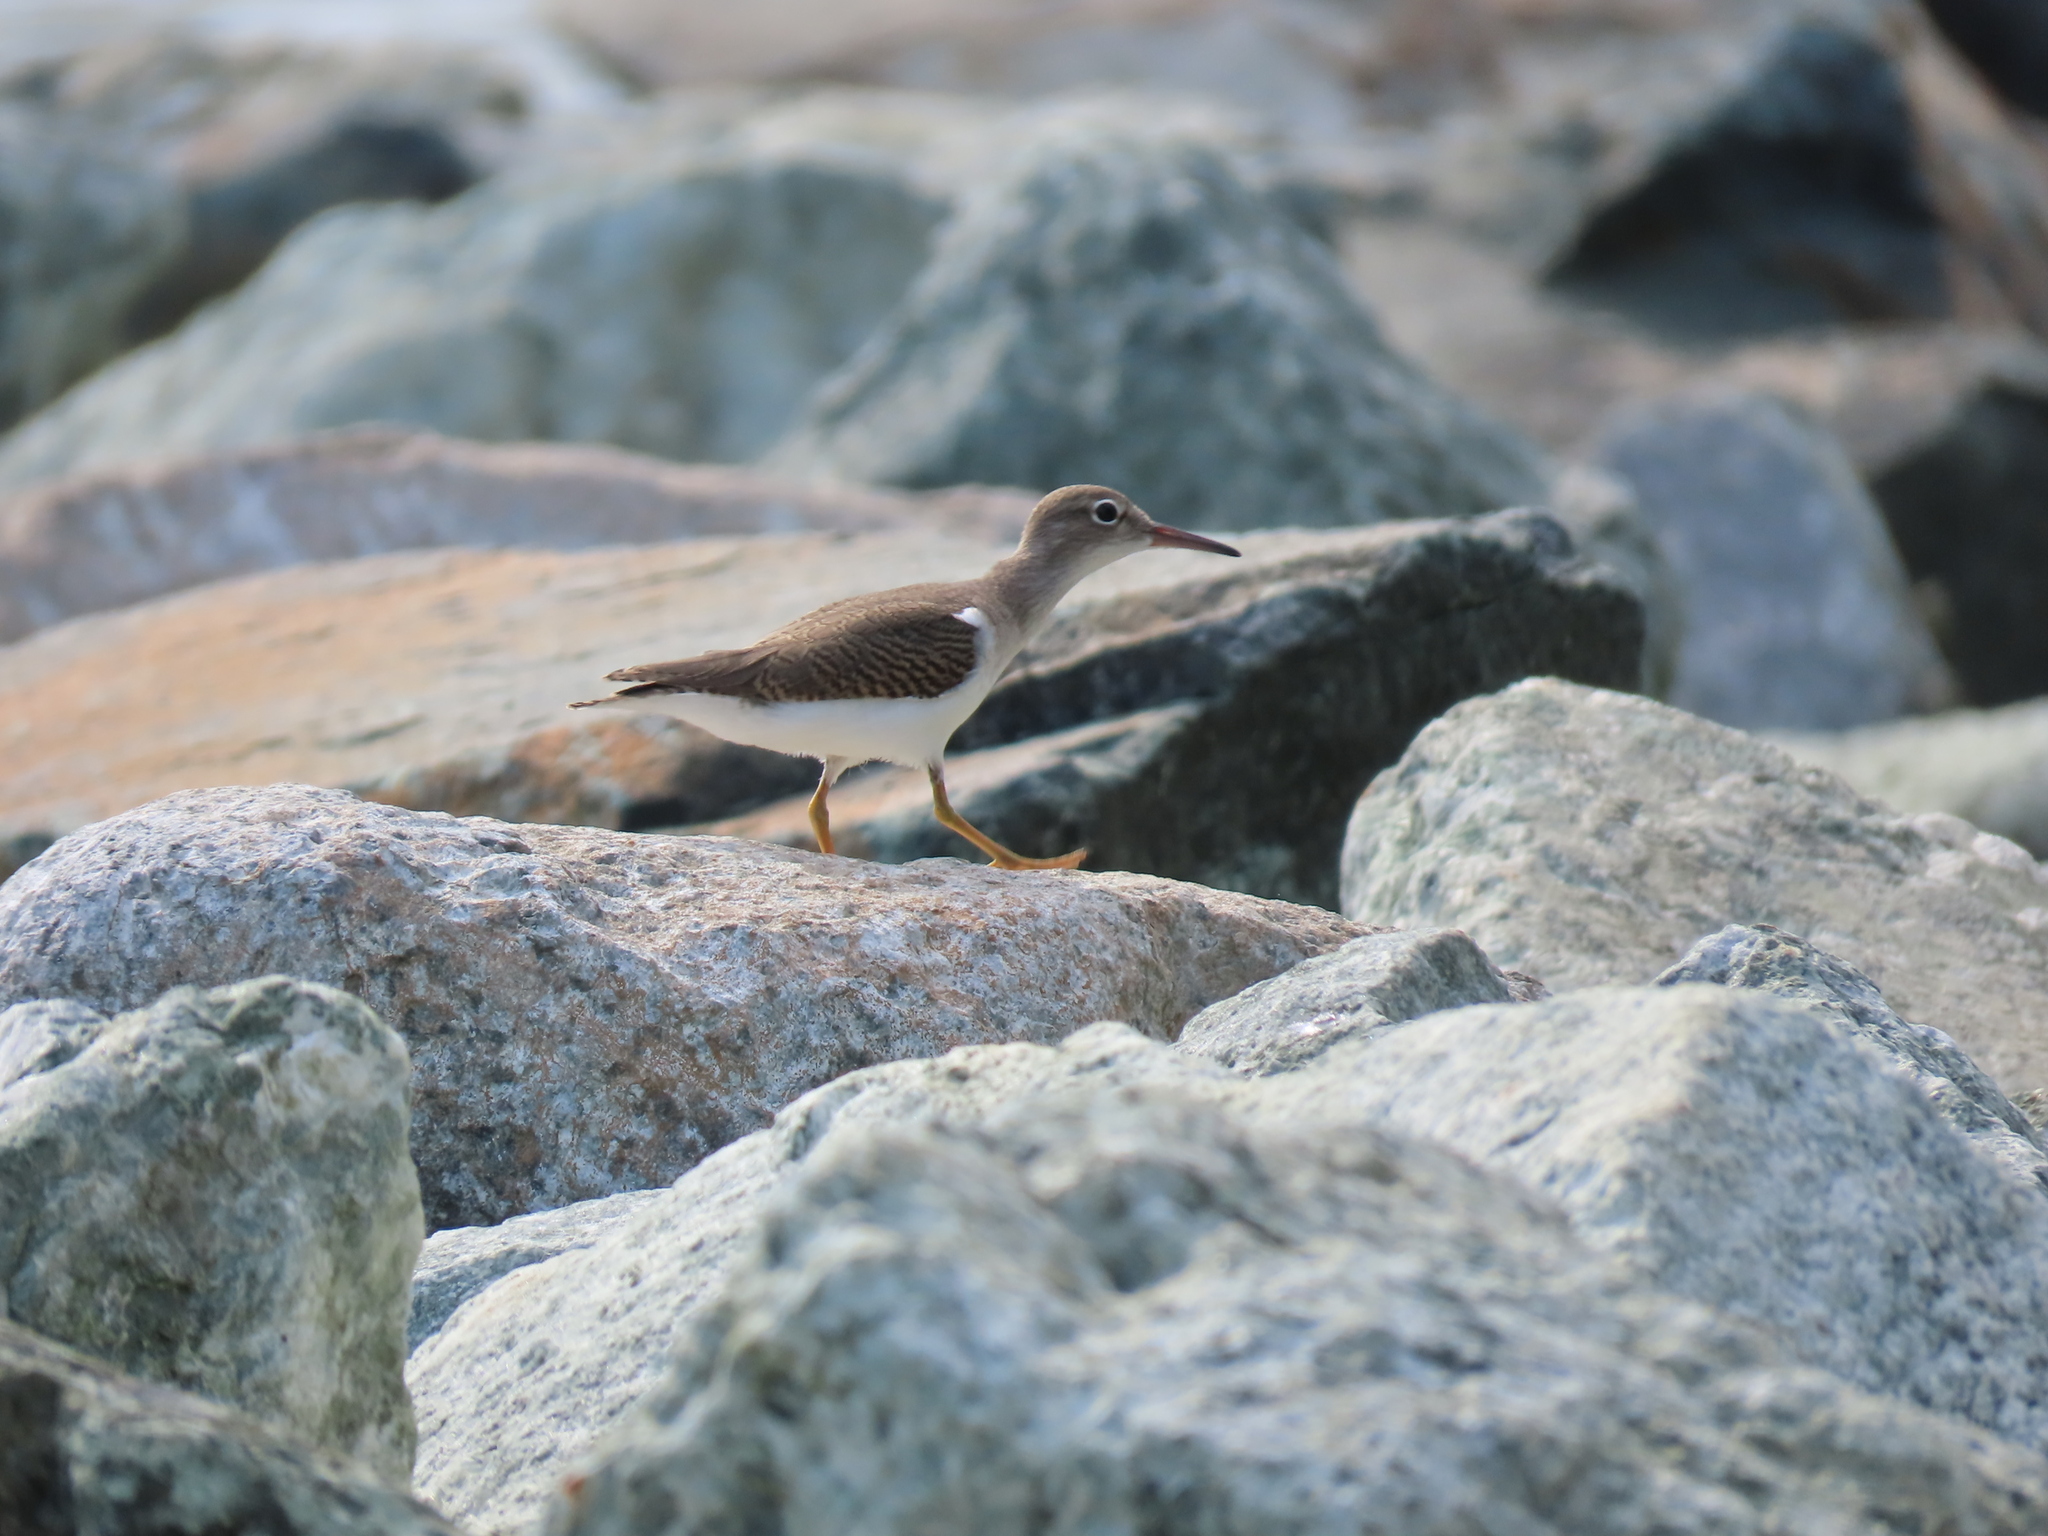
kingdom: Animalia
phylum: Chordata
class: Aves
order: Charadriiformes
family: Scolopacidae
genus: Actitis
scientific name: Actitis macularius
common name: Spotted sandpiper
